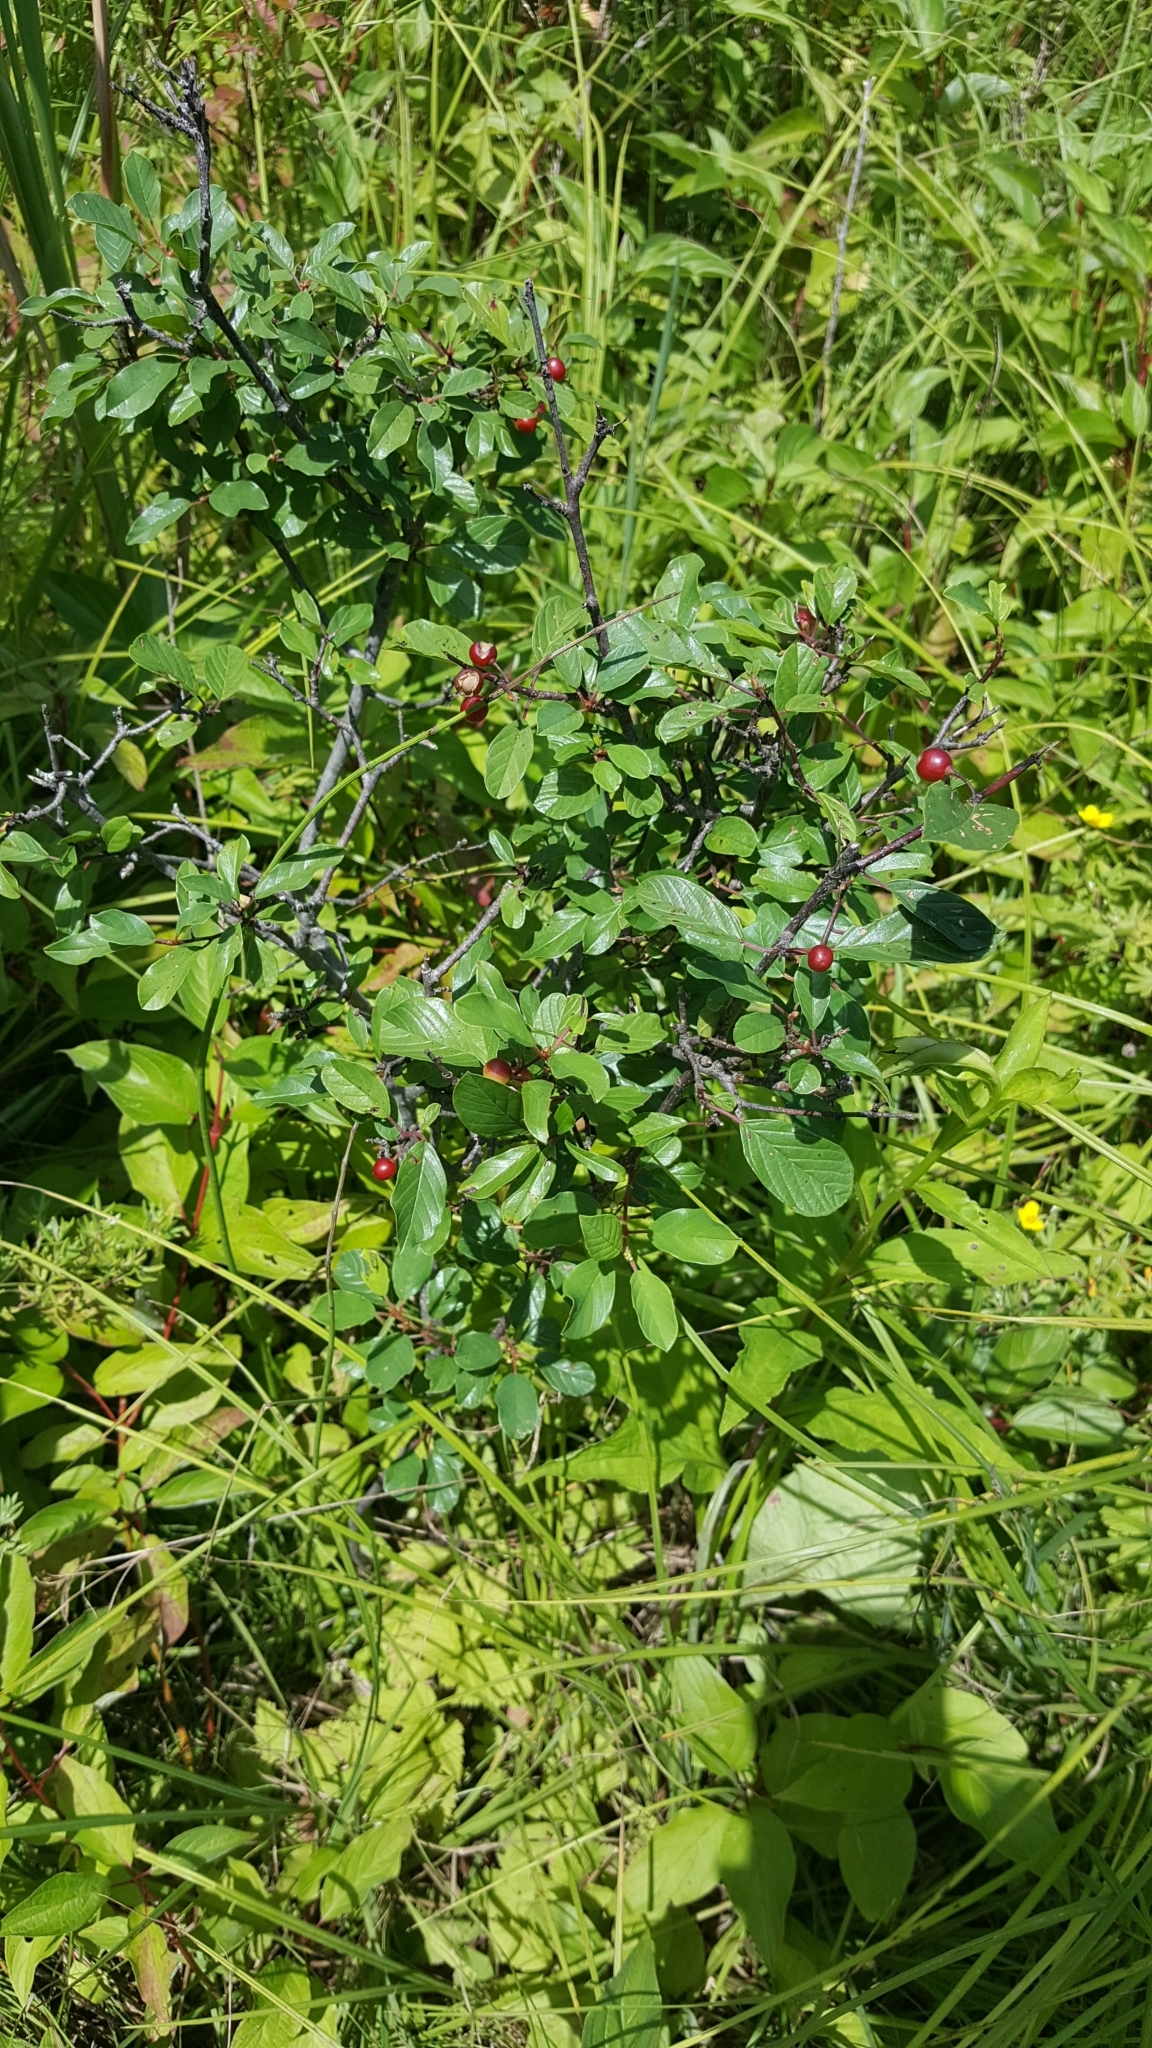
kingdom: Plantae
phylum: Tracheophyta
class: Magnoliopsida
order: Rosales
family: Rhamnaceae
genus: Frangula
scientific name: Frangula alnus
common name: Alder buckthorn
